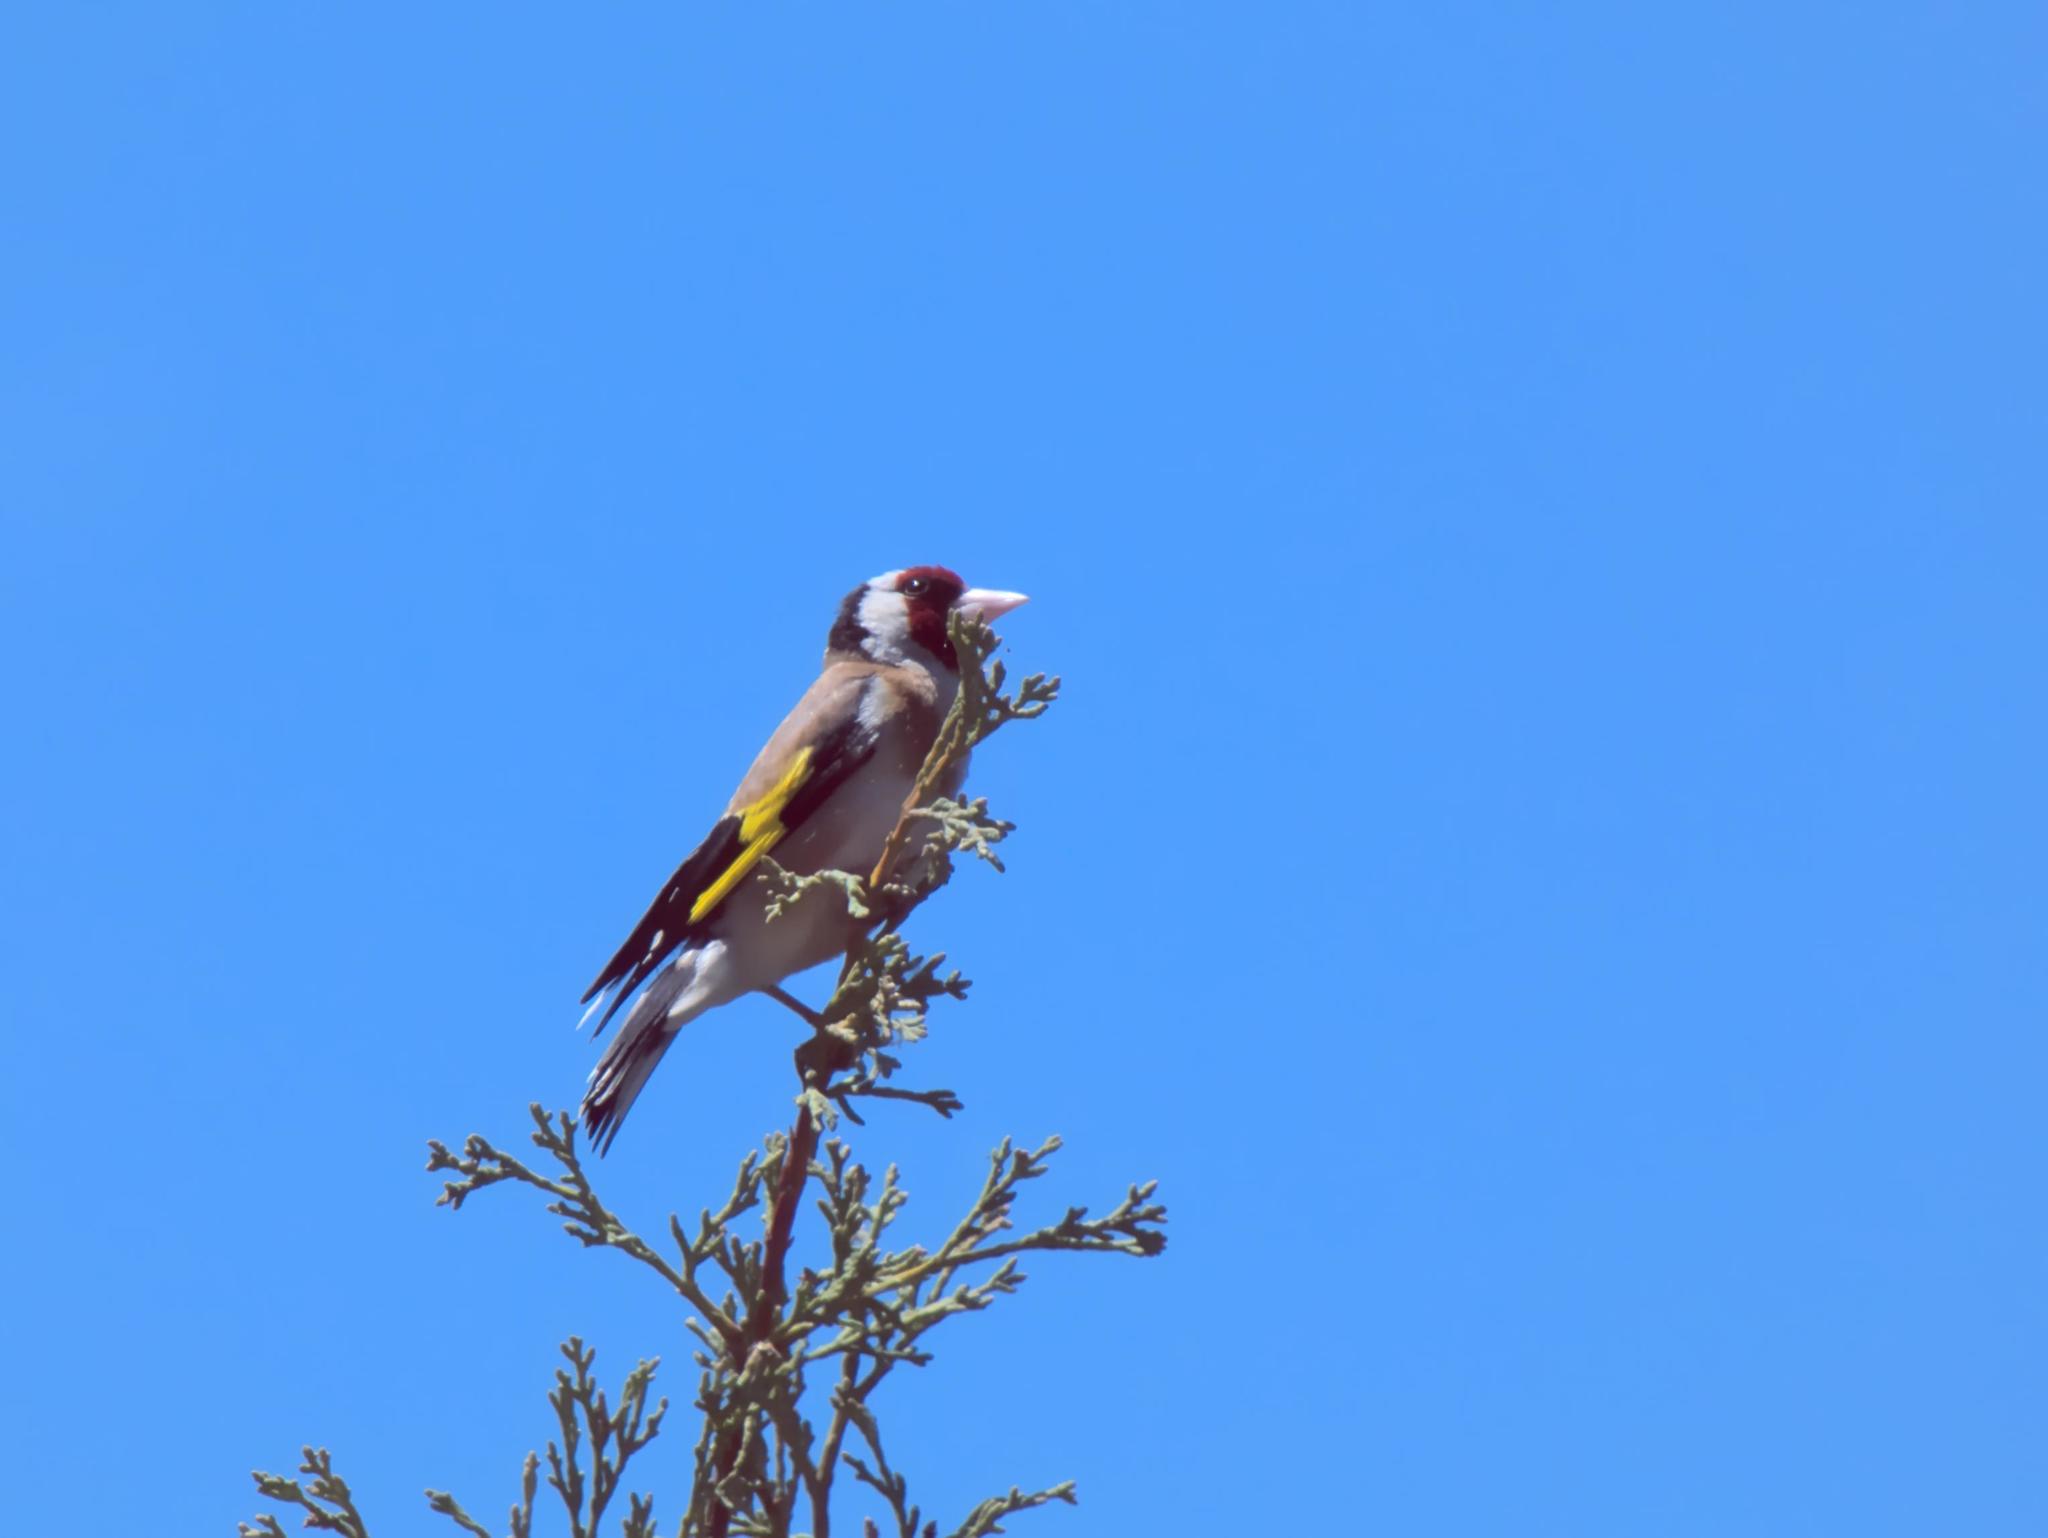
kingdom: Animalia
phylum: Chordata
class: Aves
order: Passeriformes
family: Fringillidae
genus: Carduelis
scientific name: Carduelis carduelis
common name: European goldfinch
